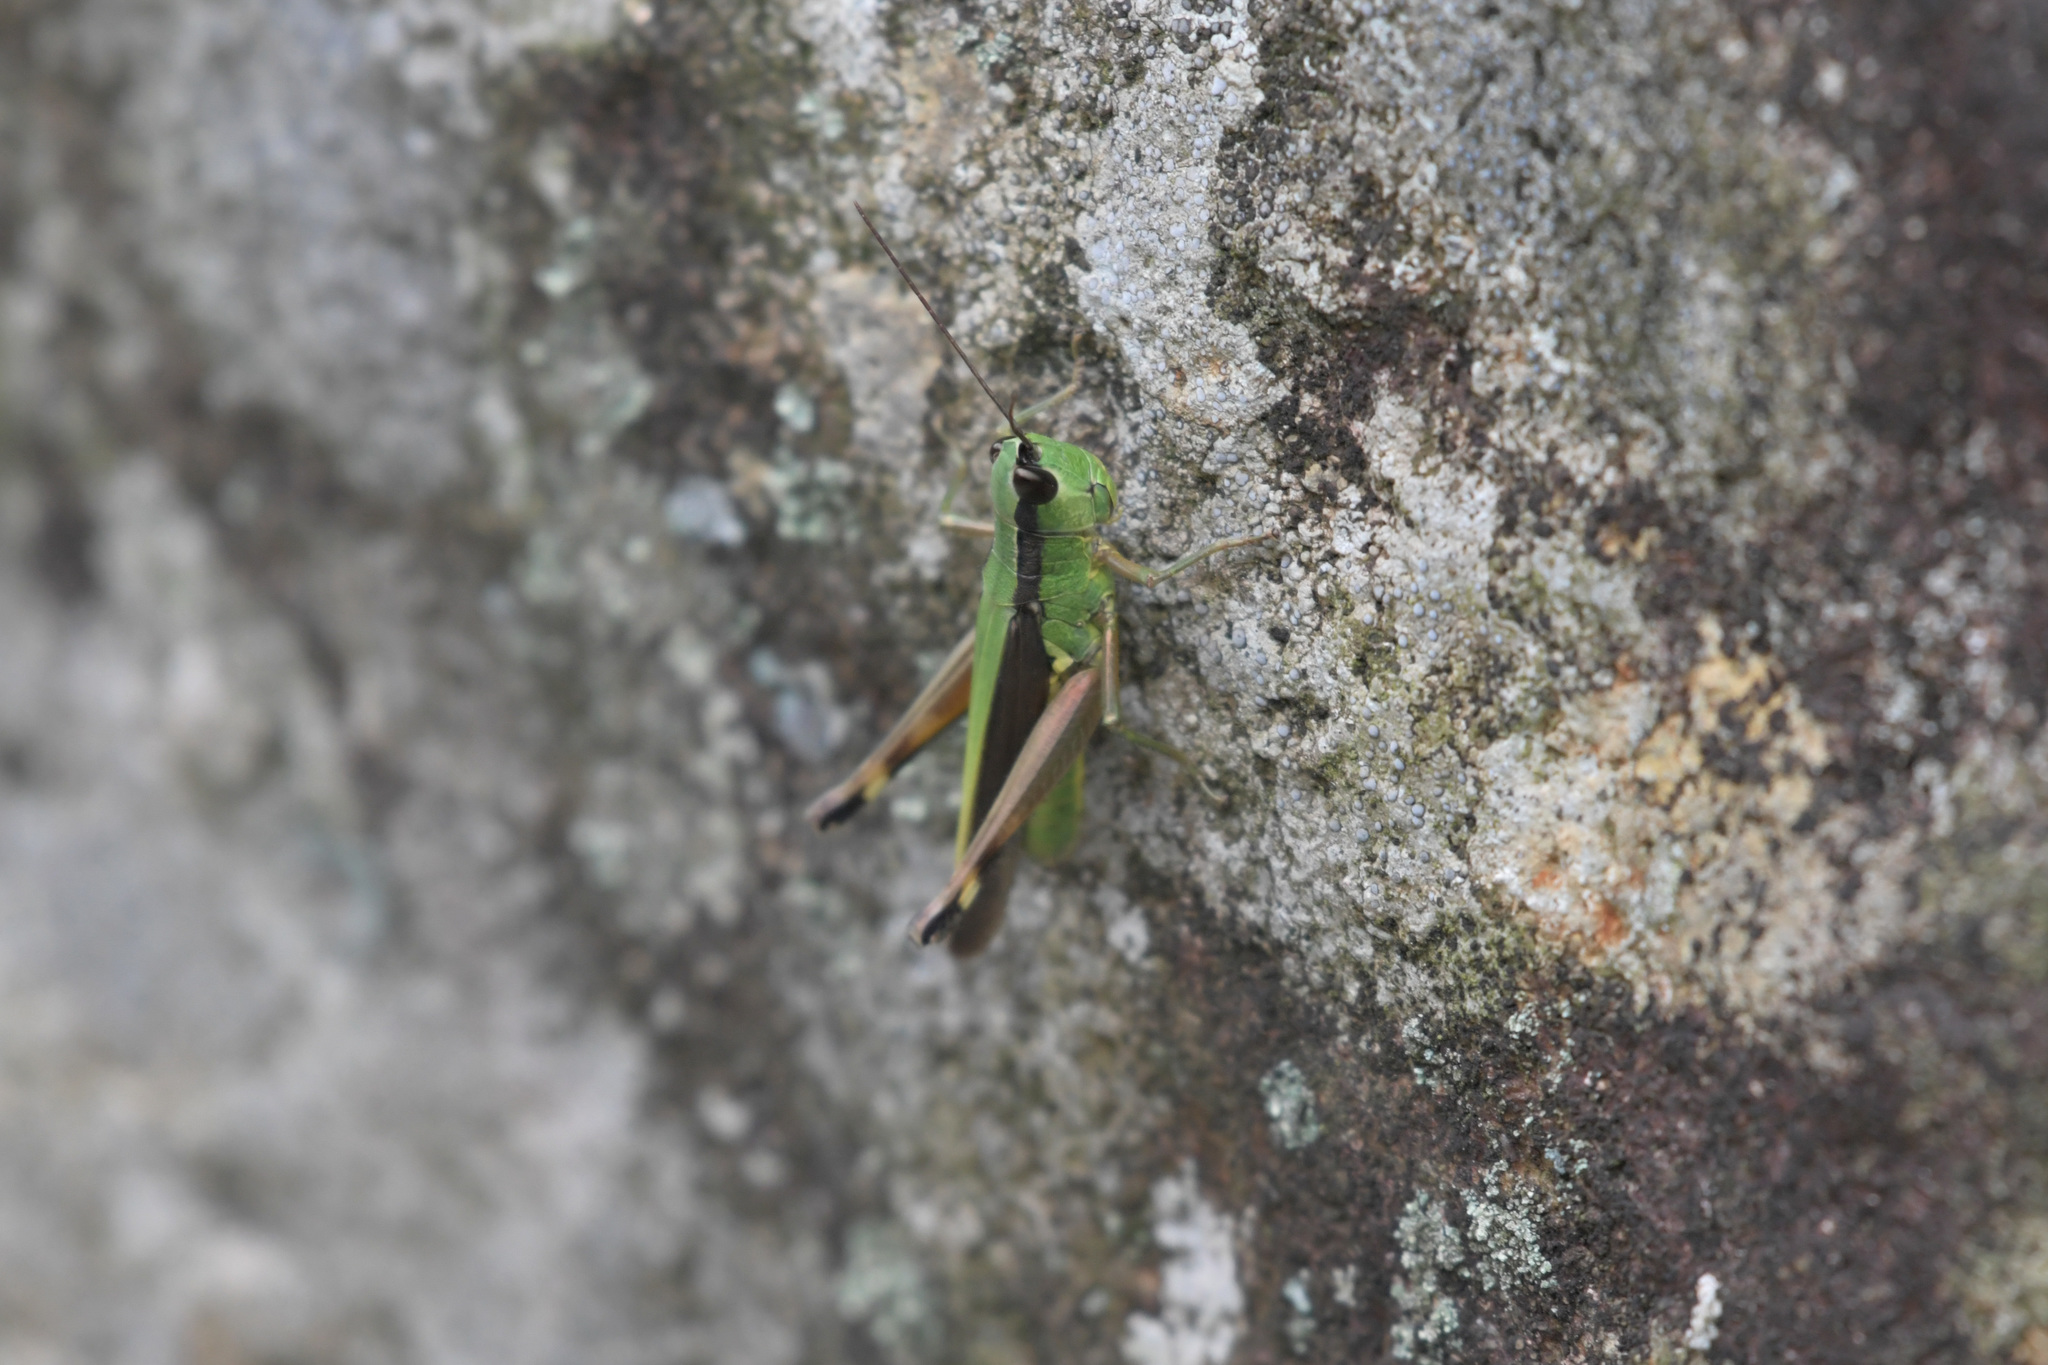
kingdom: Animalia
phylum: Arthropoda
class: Insecta
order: Orthoptera
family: Acrididae
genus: Ceracris
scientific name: Ceracris nigricornis
